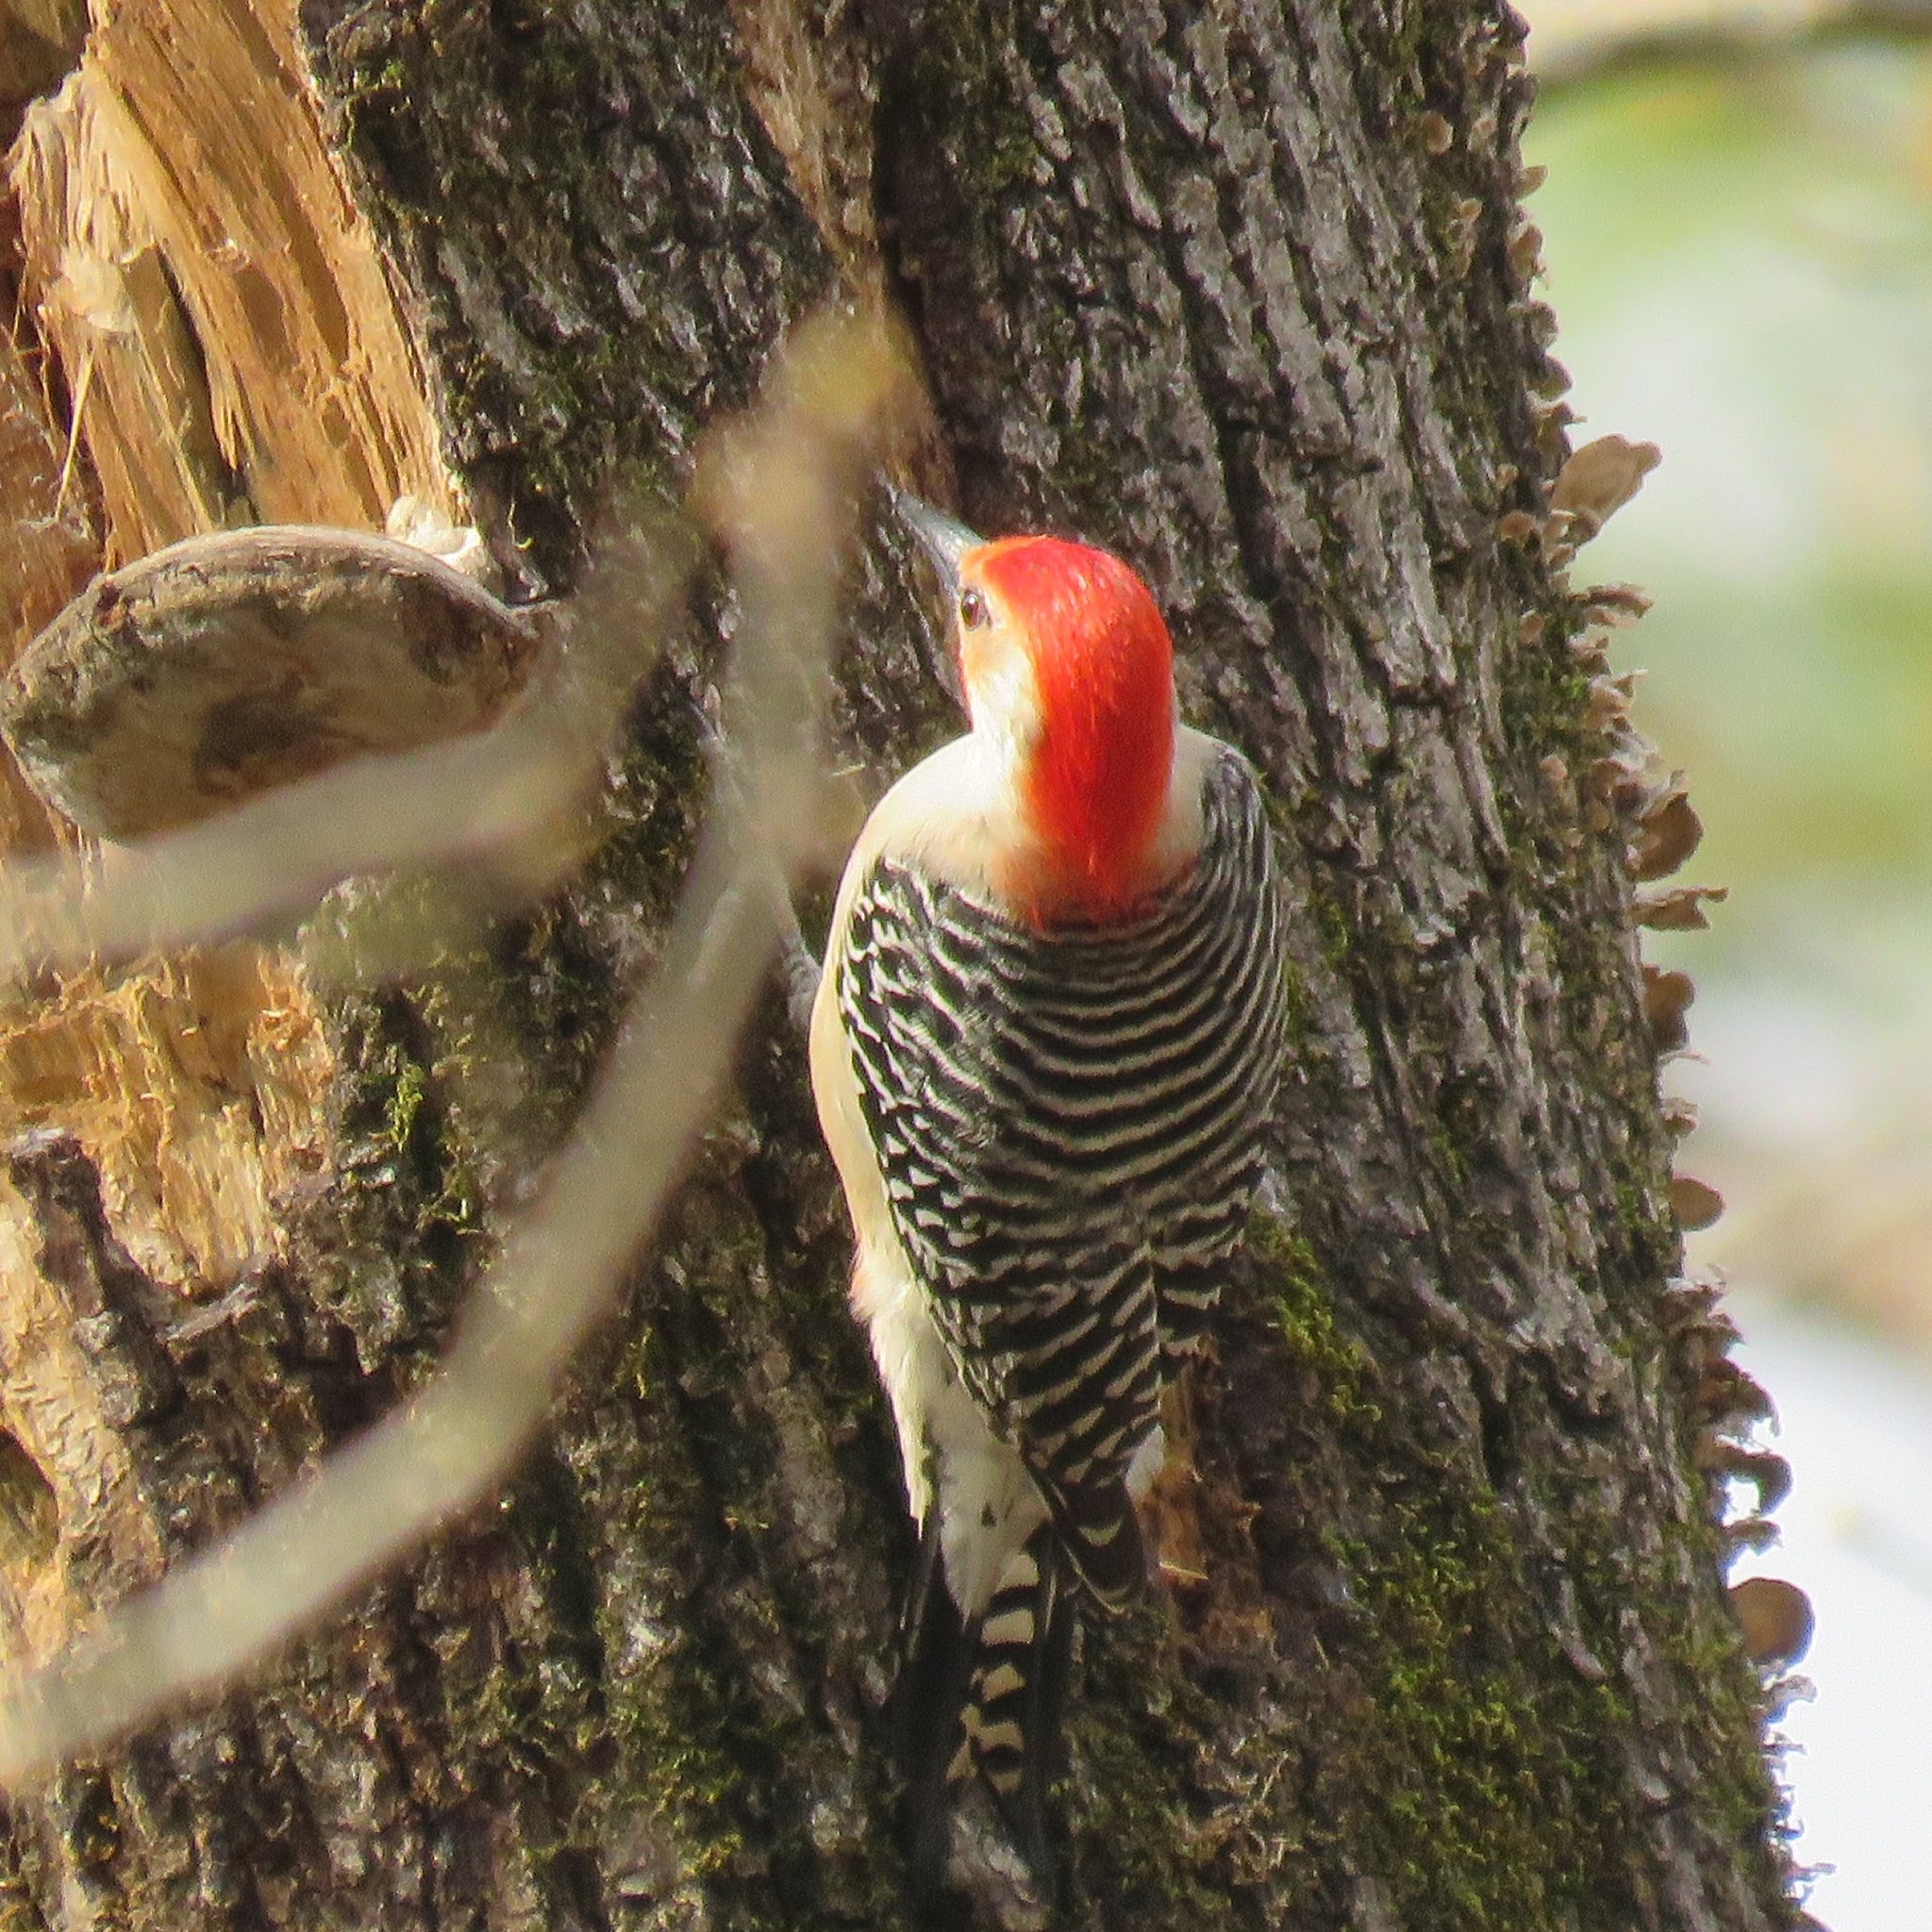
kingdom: Animalia
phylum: Chordata
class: Aves
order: Piciformes
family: Picidae
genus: Melanerpes
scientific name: Melanerpes carolinus
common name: Red-bellied woodpecker
